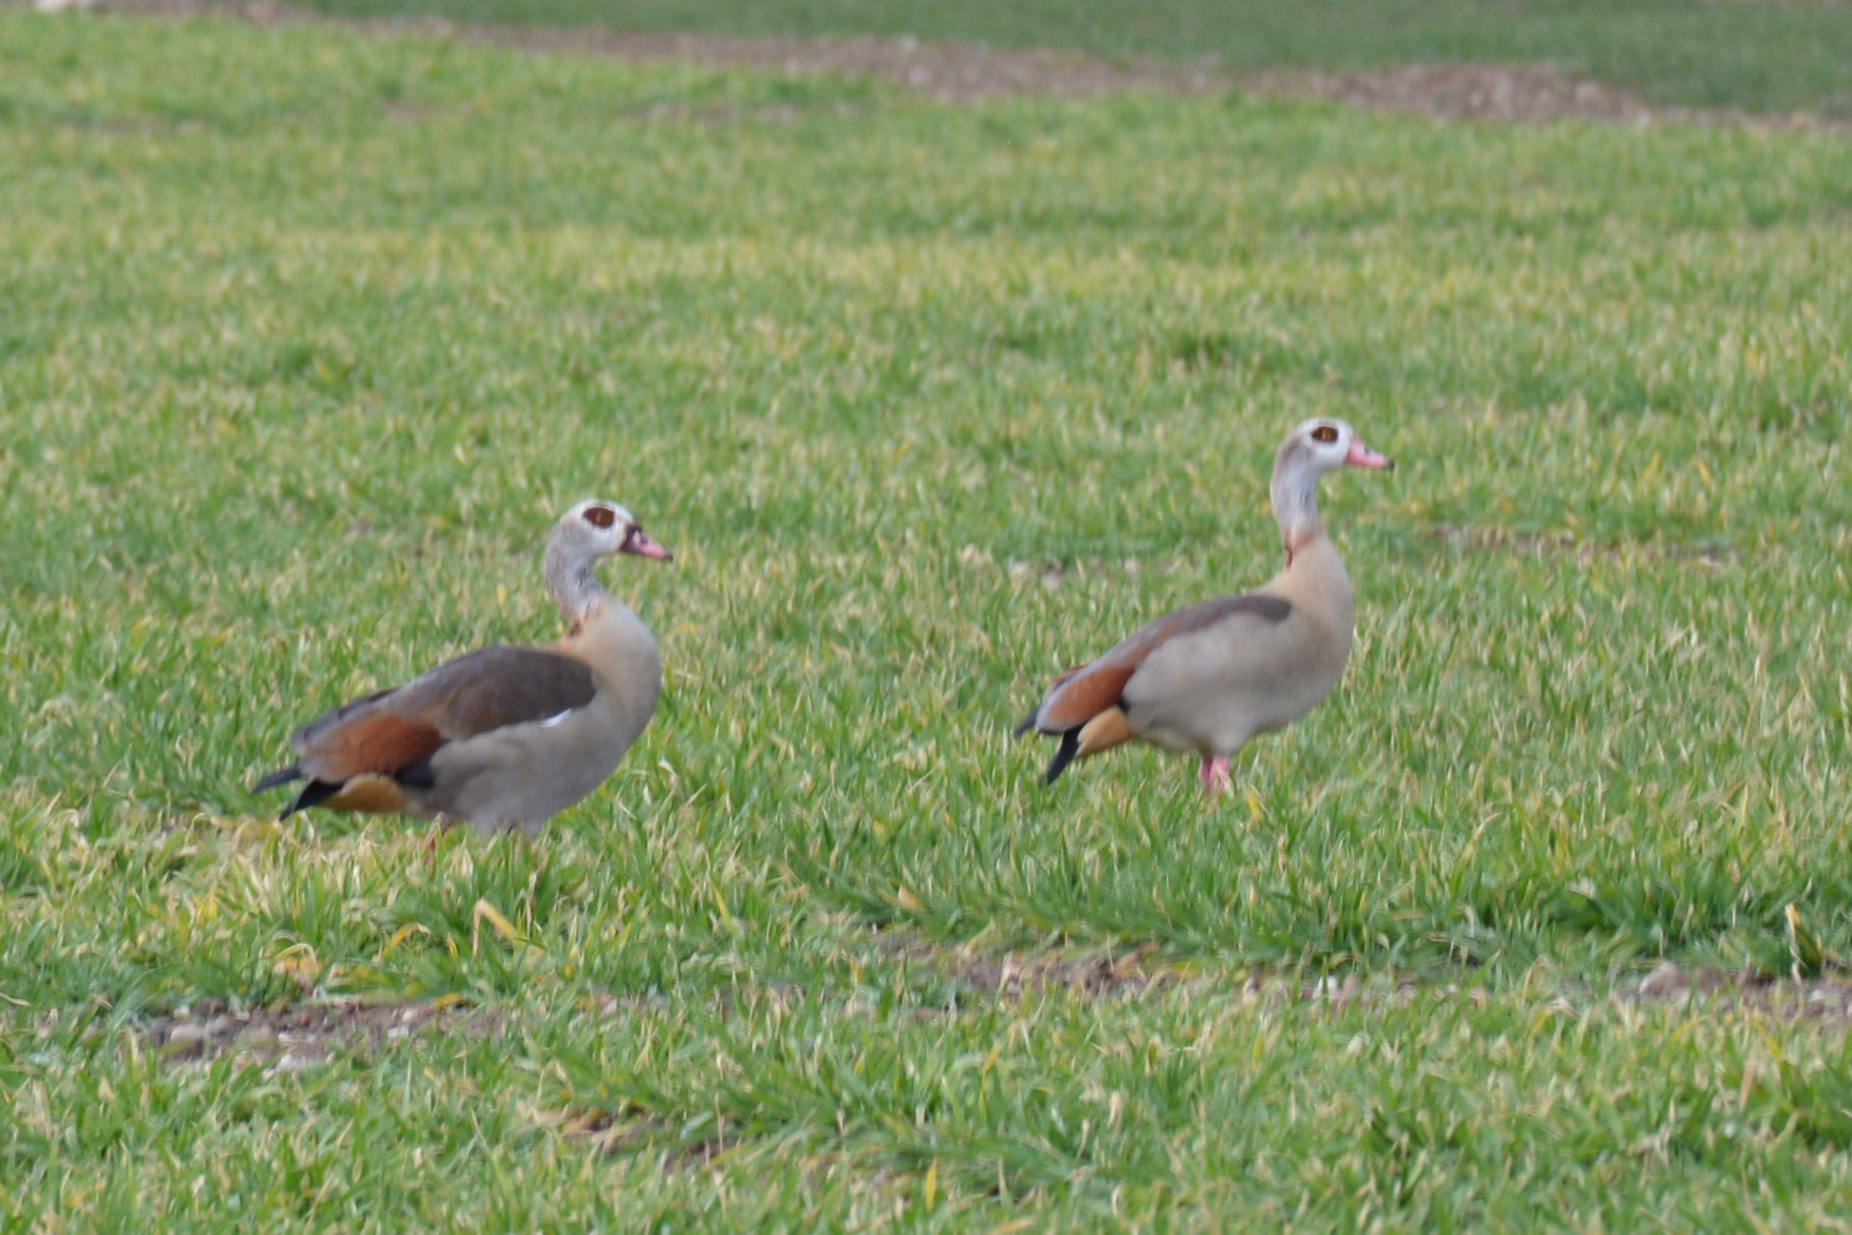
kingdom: Animalia
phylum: Chordata
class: Aves
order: Anseriformes
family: Anatidae
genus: Alopochen
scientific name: Alopochen aegyptiaca
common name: Egyptian goose
